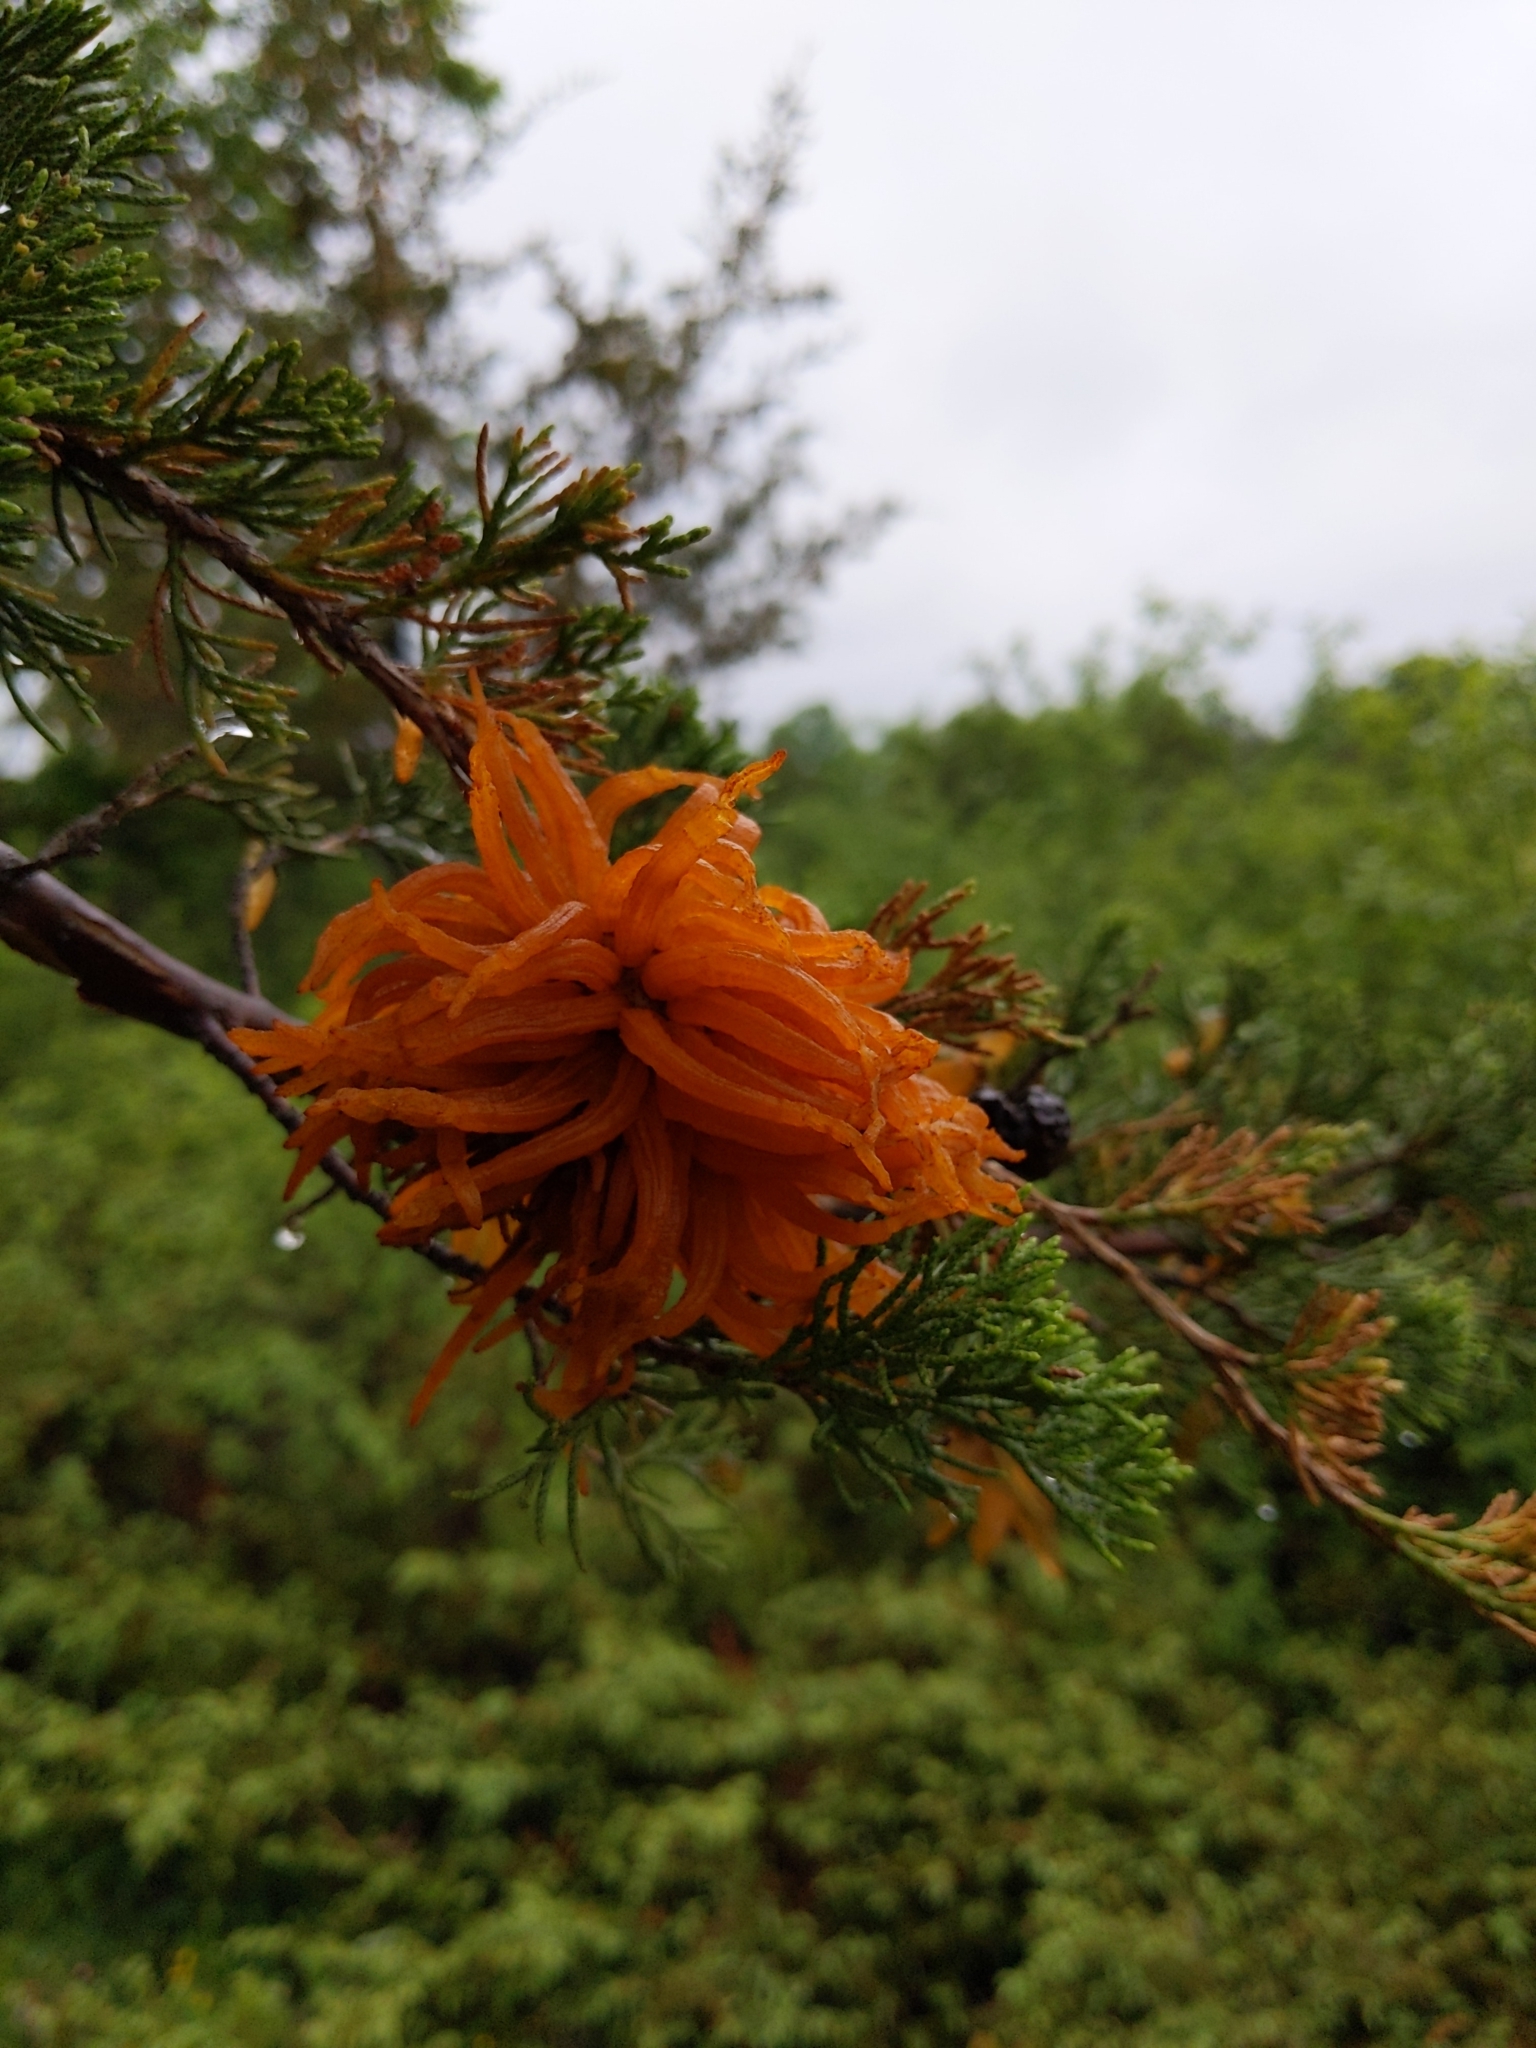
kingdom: Fungi
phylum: Basidiomycota
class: Pucciniomycetes
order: Pucciniales
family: Gymnosporangiaceae
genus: Gymnosporangium
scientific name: Gymnosporangium juniperi-virginianae
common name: Juniper-apple rust
